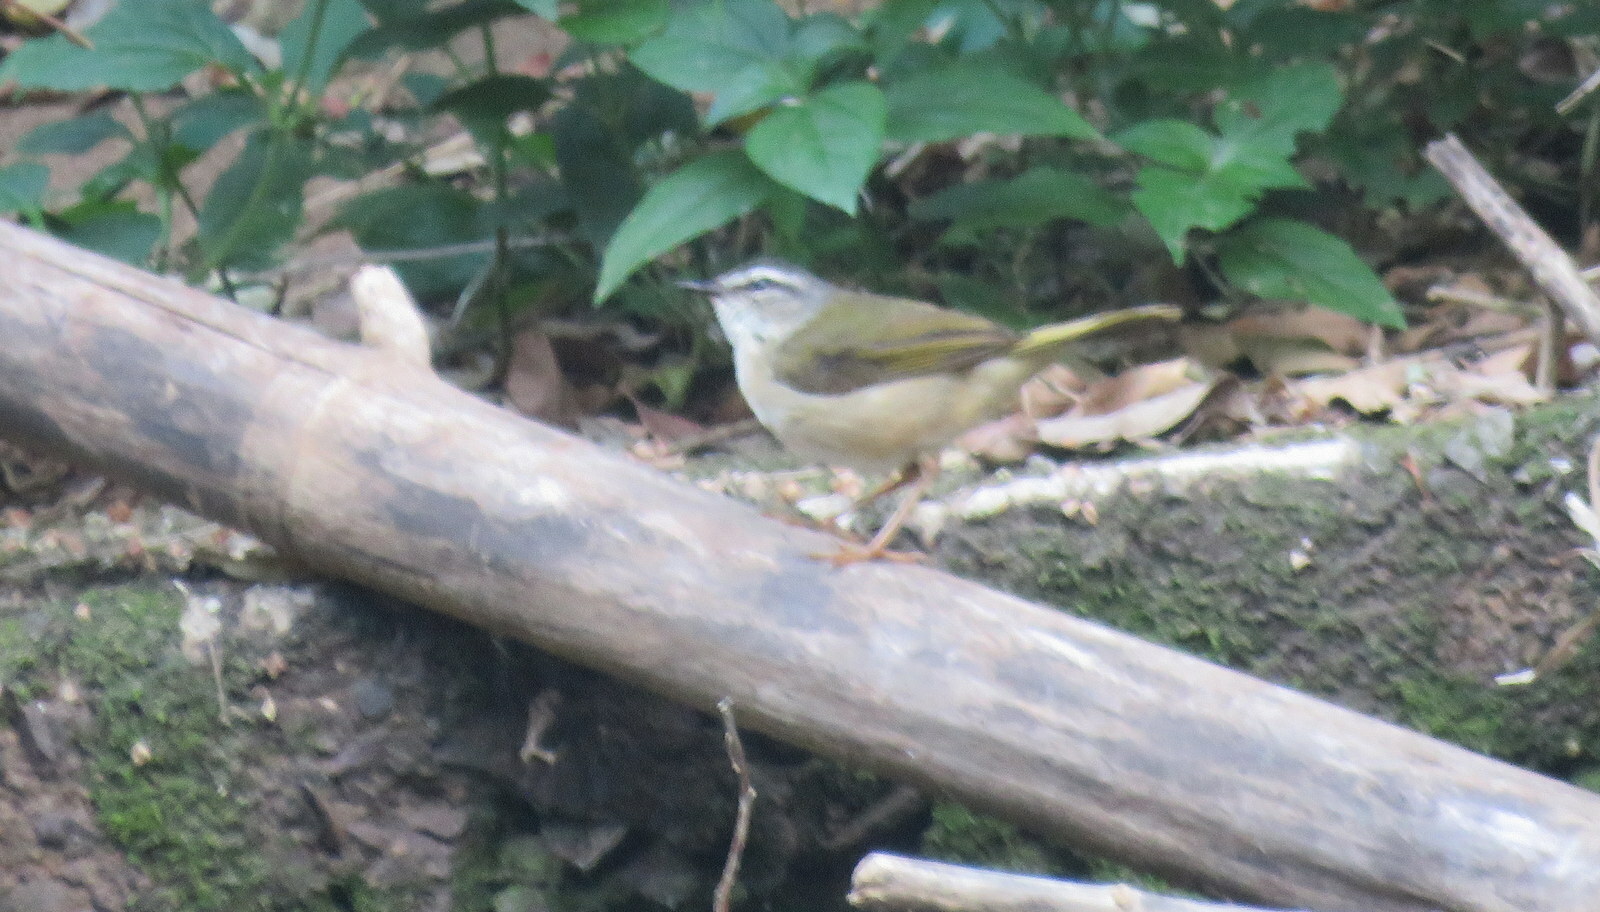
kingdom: Animalia
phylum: Chordata
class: Aves
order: Passeriformes
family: Parulidae
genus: Myiothlypis
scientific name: Myiothlypis rivularis
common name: Riverbank warbler
